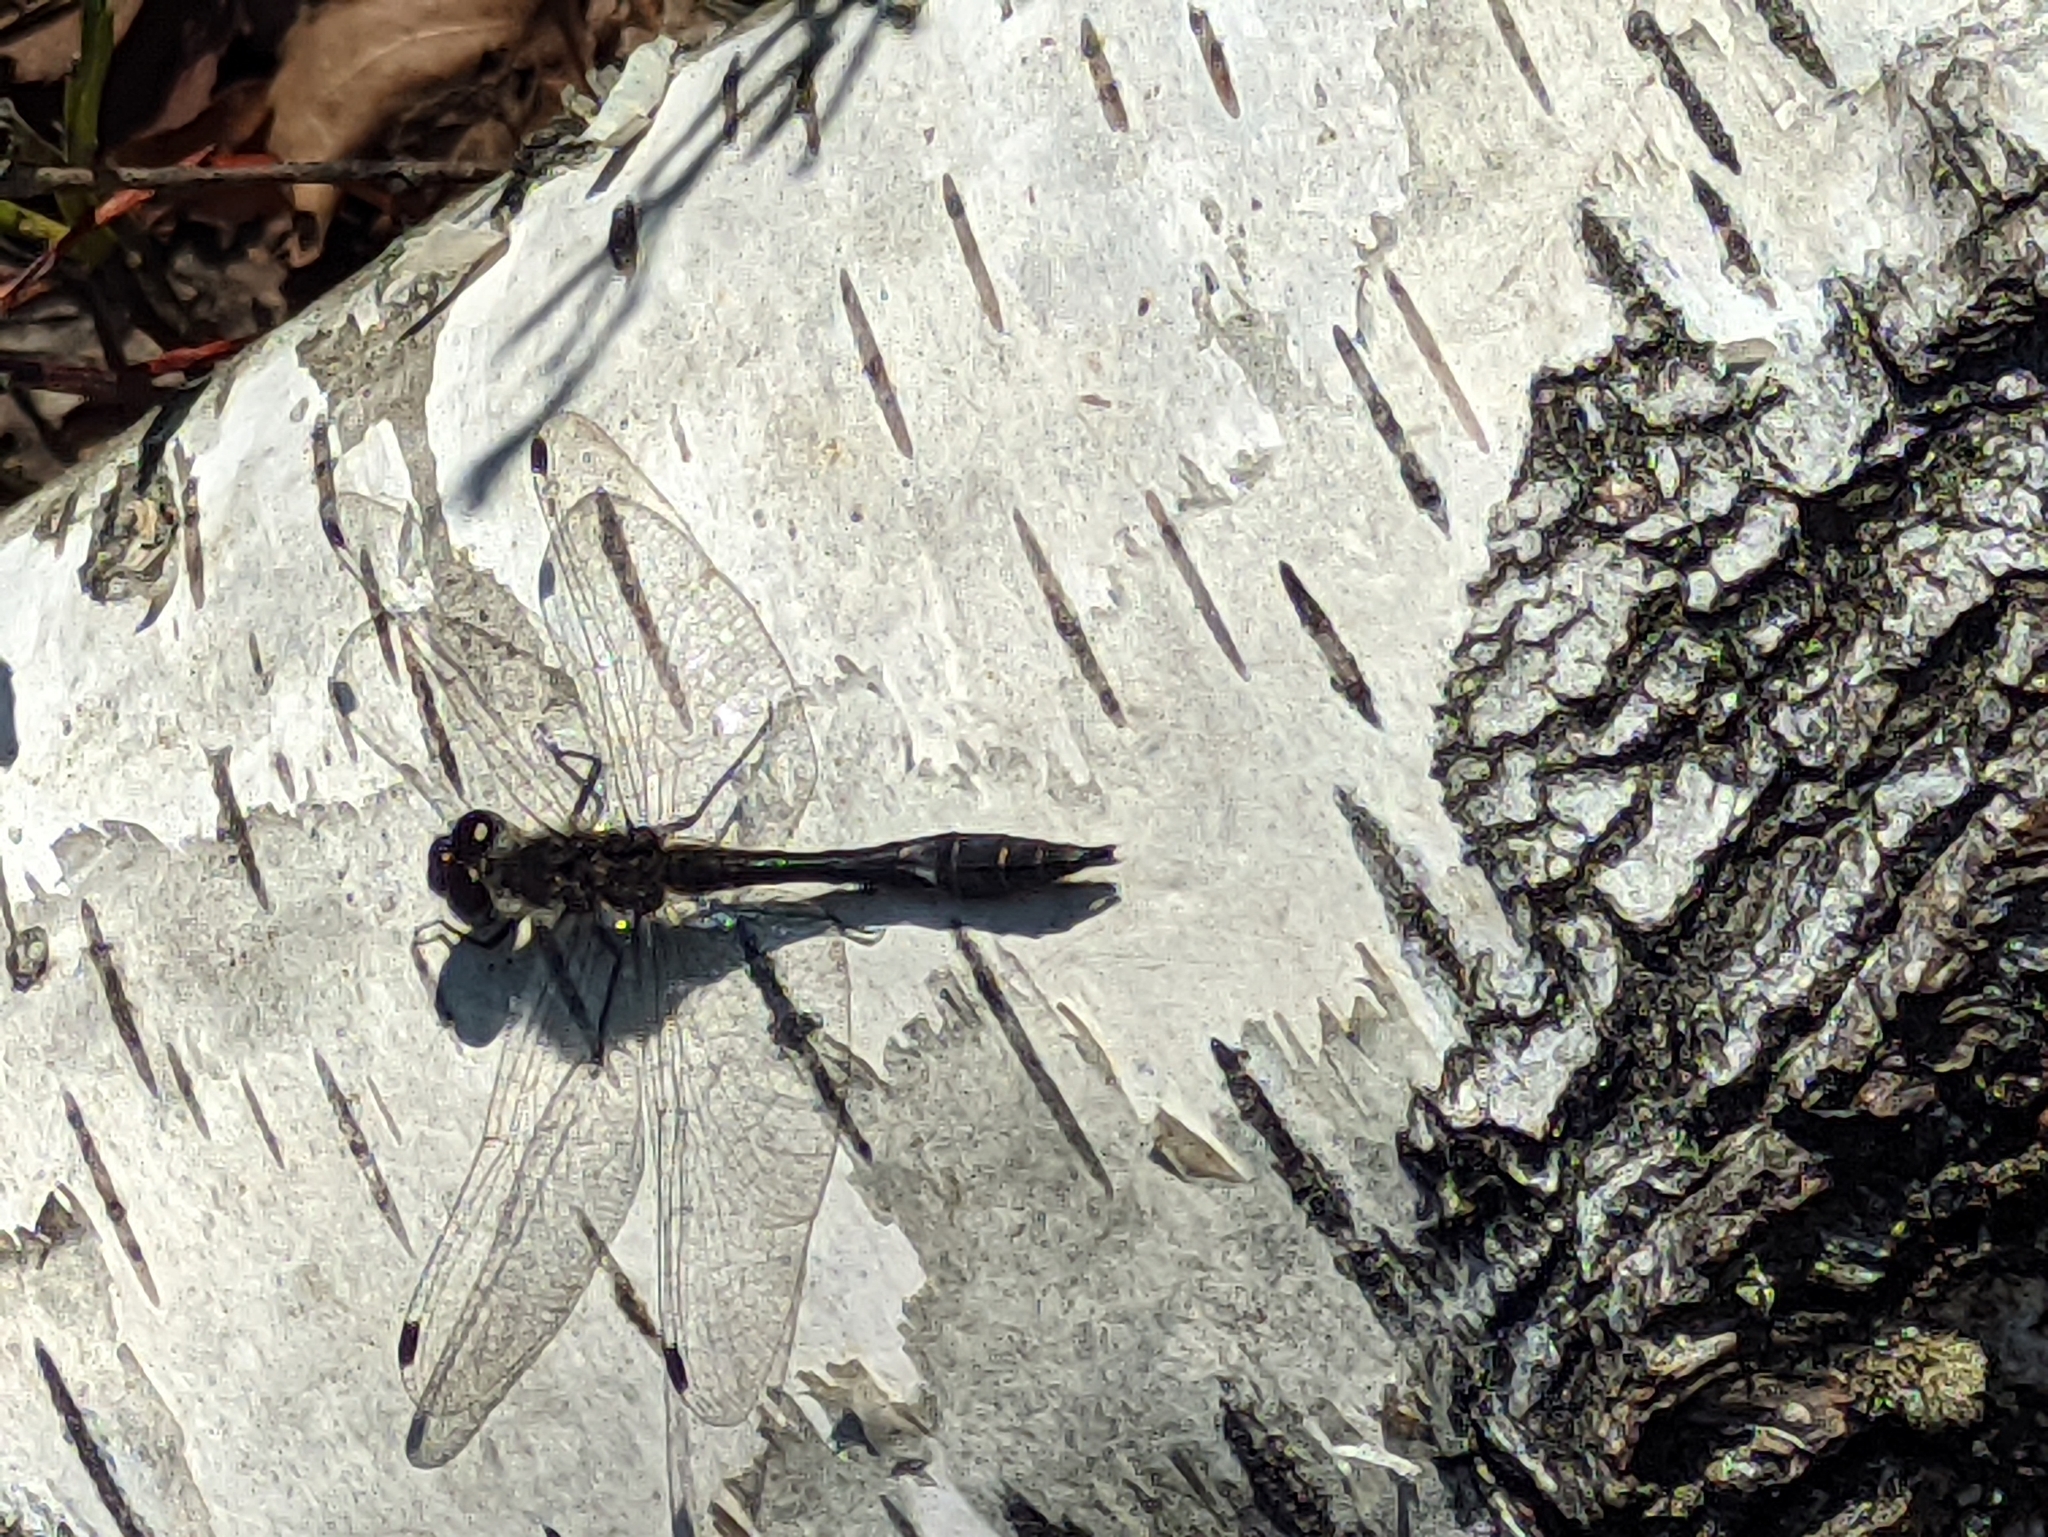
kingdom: Animalia
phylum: Arthropoda
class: Insecta
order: Odonata
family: Libellulidae
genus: Sympetrum
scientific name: Sympetrum danae
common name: Black darter
